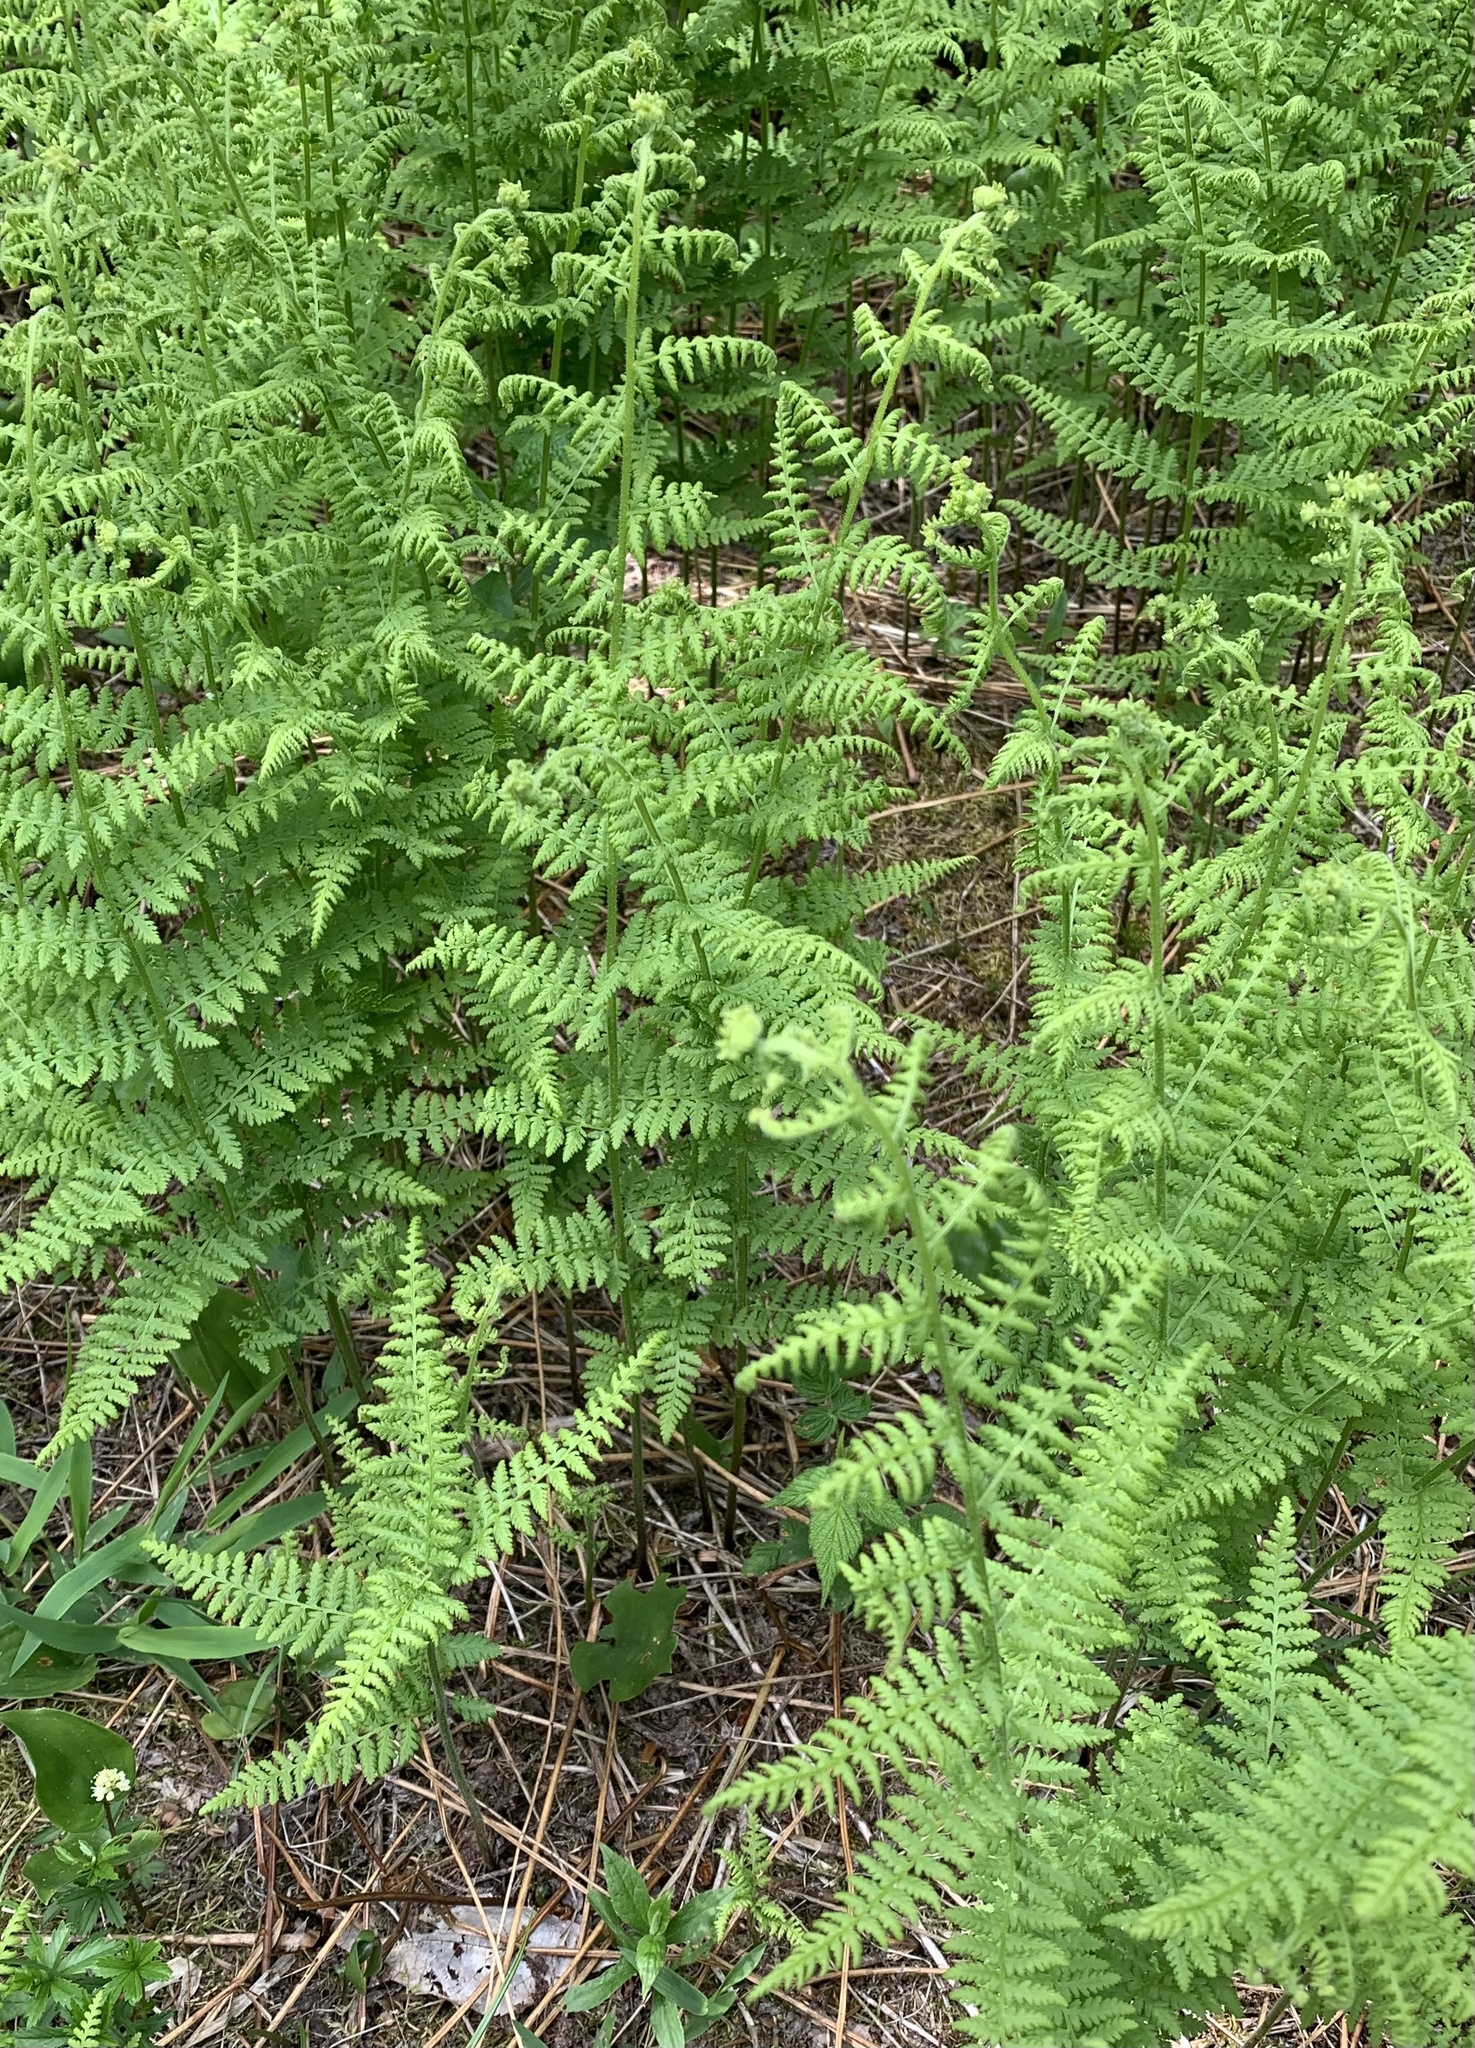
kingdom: Plantae
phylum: Tracheophyta
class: Polypodiopsida
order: Polypodiales
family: Dennstaedtiaceae
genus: Sitobolium
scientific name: Sitobolium punctilobum
